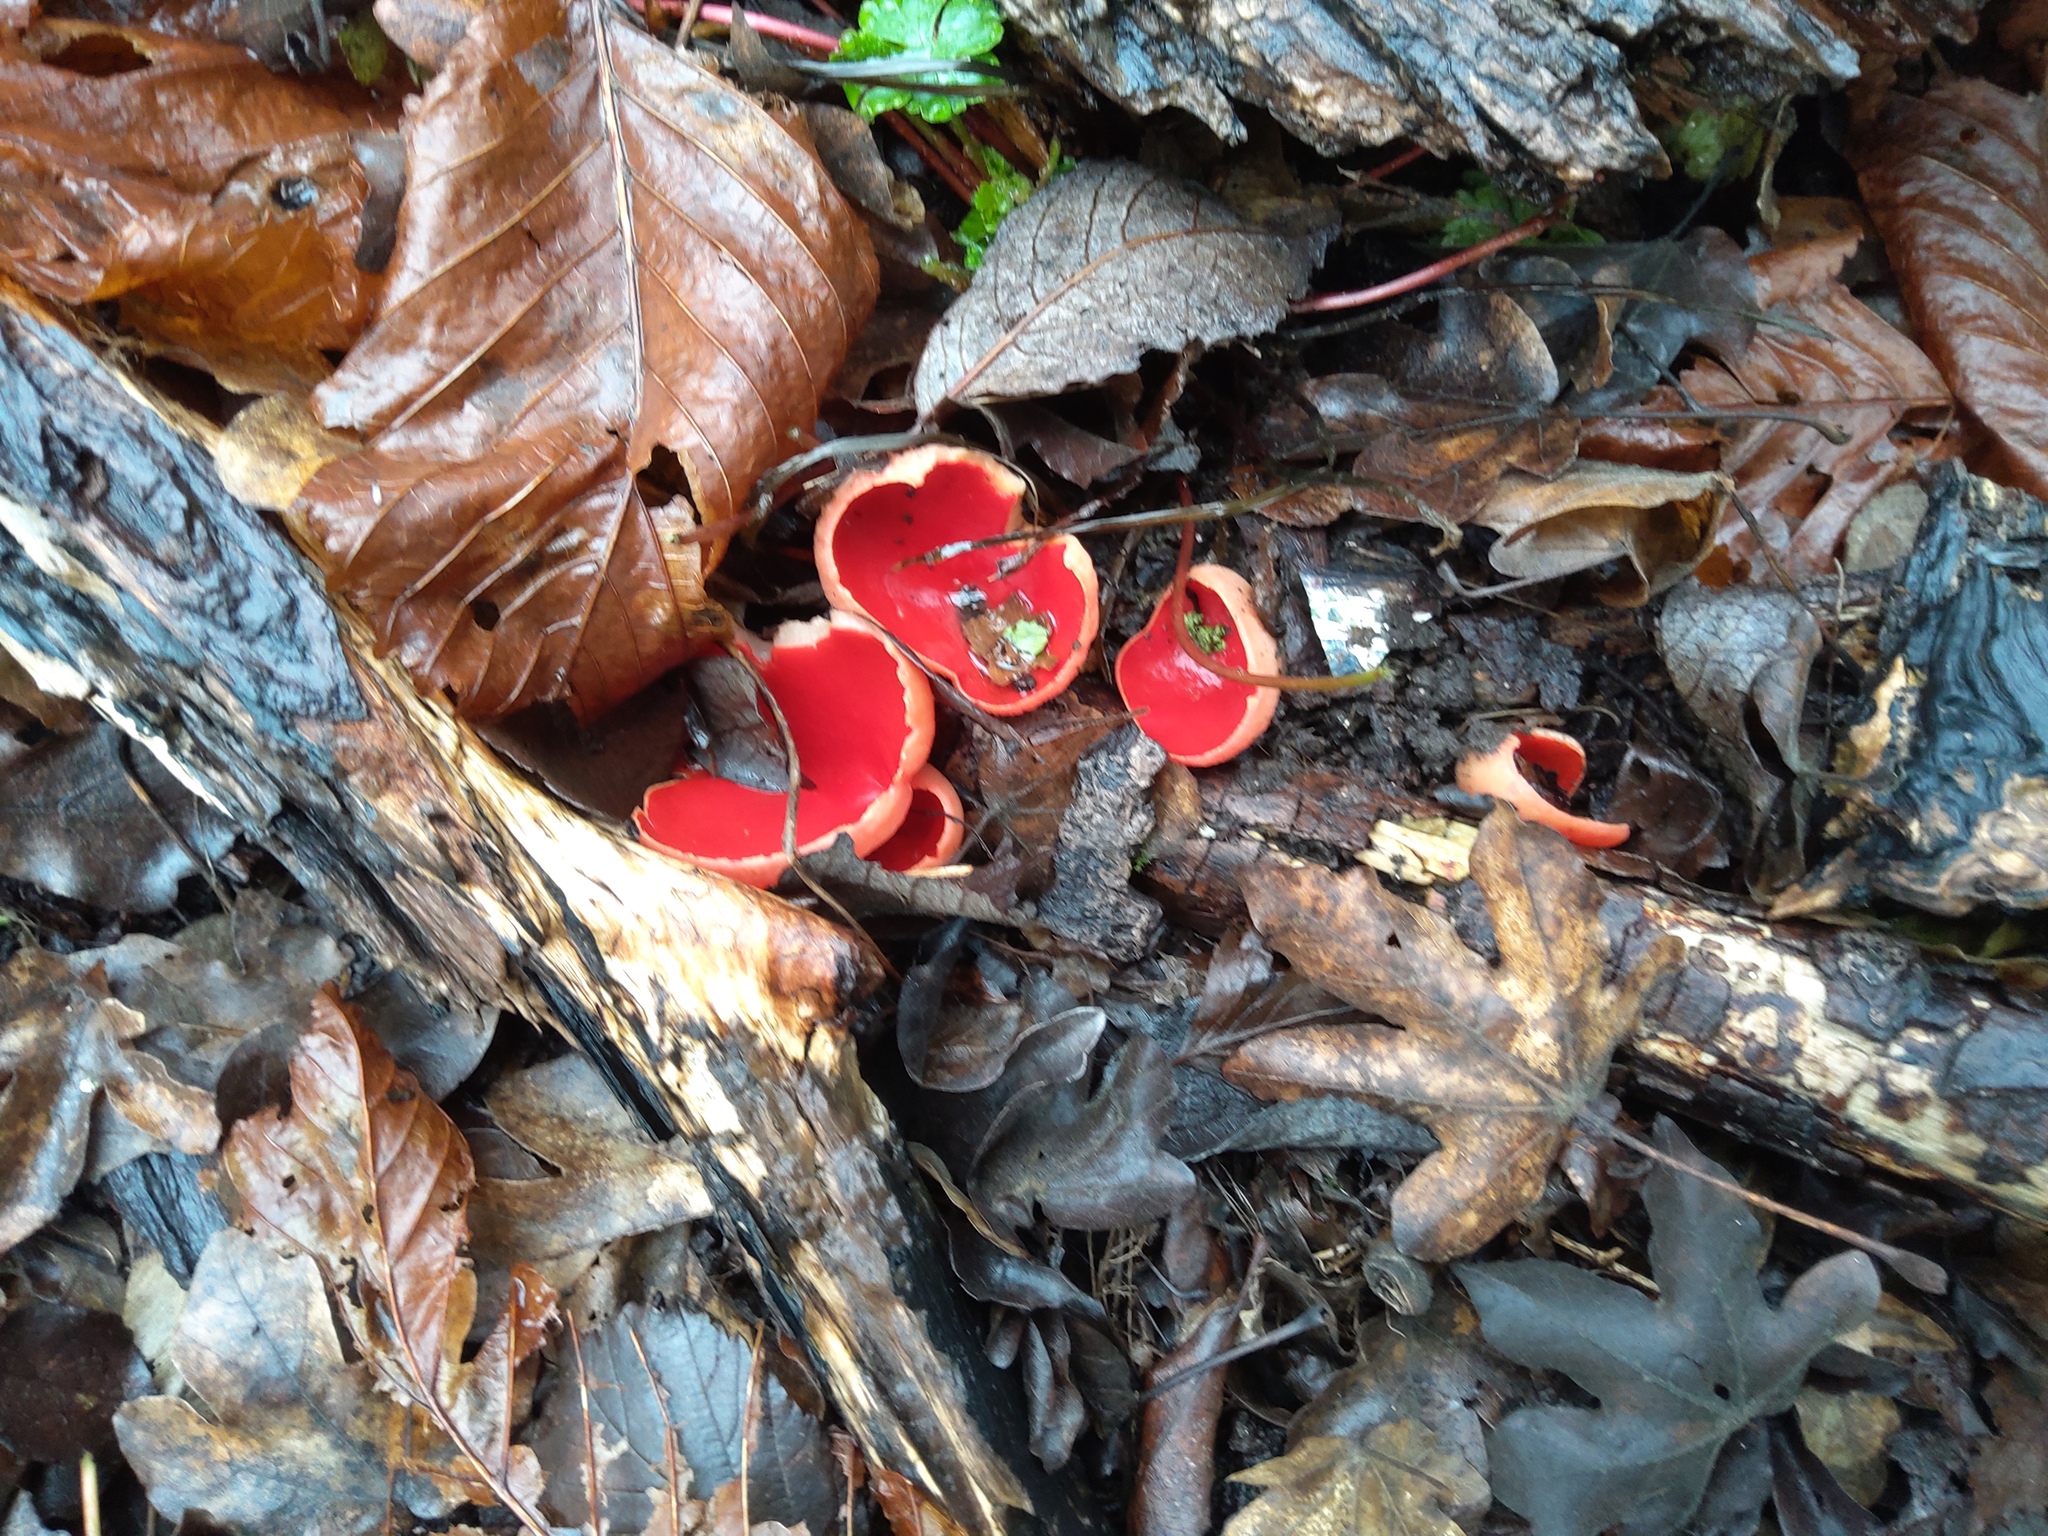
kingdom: Fungi
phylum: Ascomycota
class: Pezizomycetes
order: Pezizales
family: Sarcoscyphaceae
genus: Sarcoscypha
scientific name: Sarcoscypha
